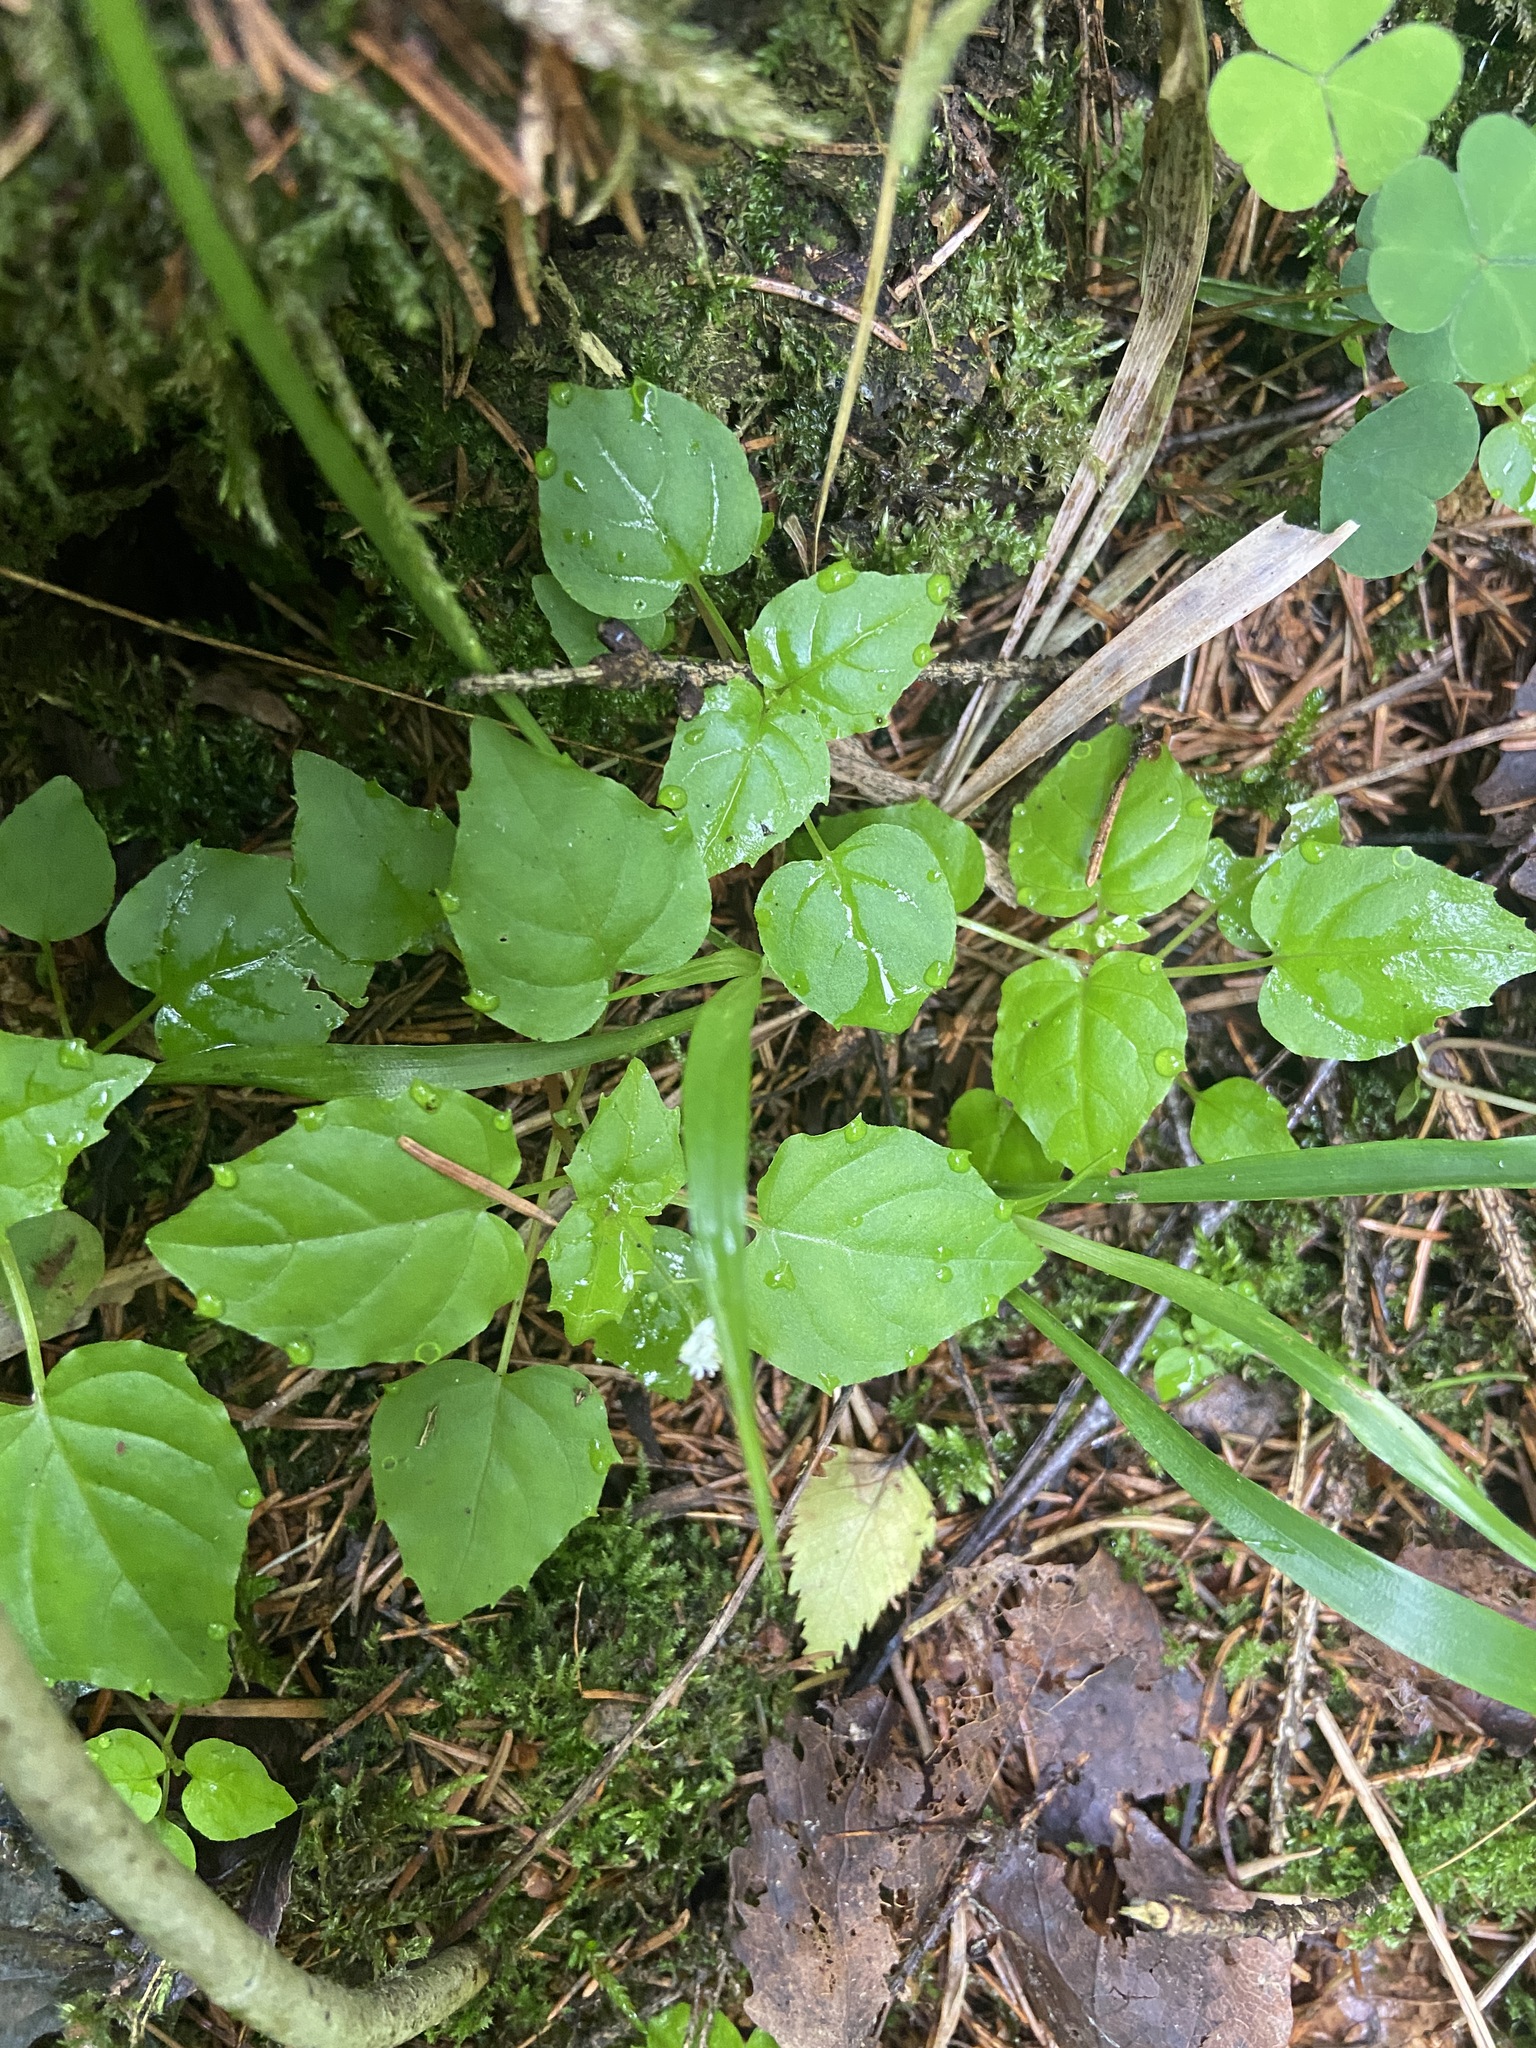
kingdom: Plantae
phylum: Tracheophyta
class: Magnoliopsida
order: Myrtales
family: Onagraceae
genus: Circaea
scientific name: Circaea alpina
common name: Alpine enchanter's-nightshade
